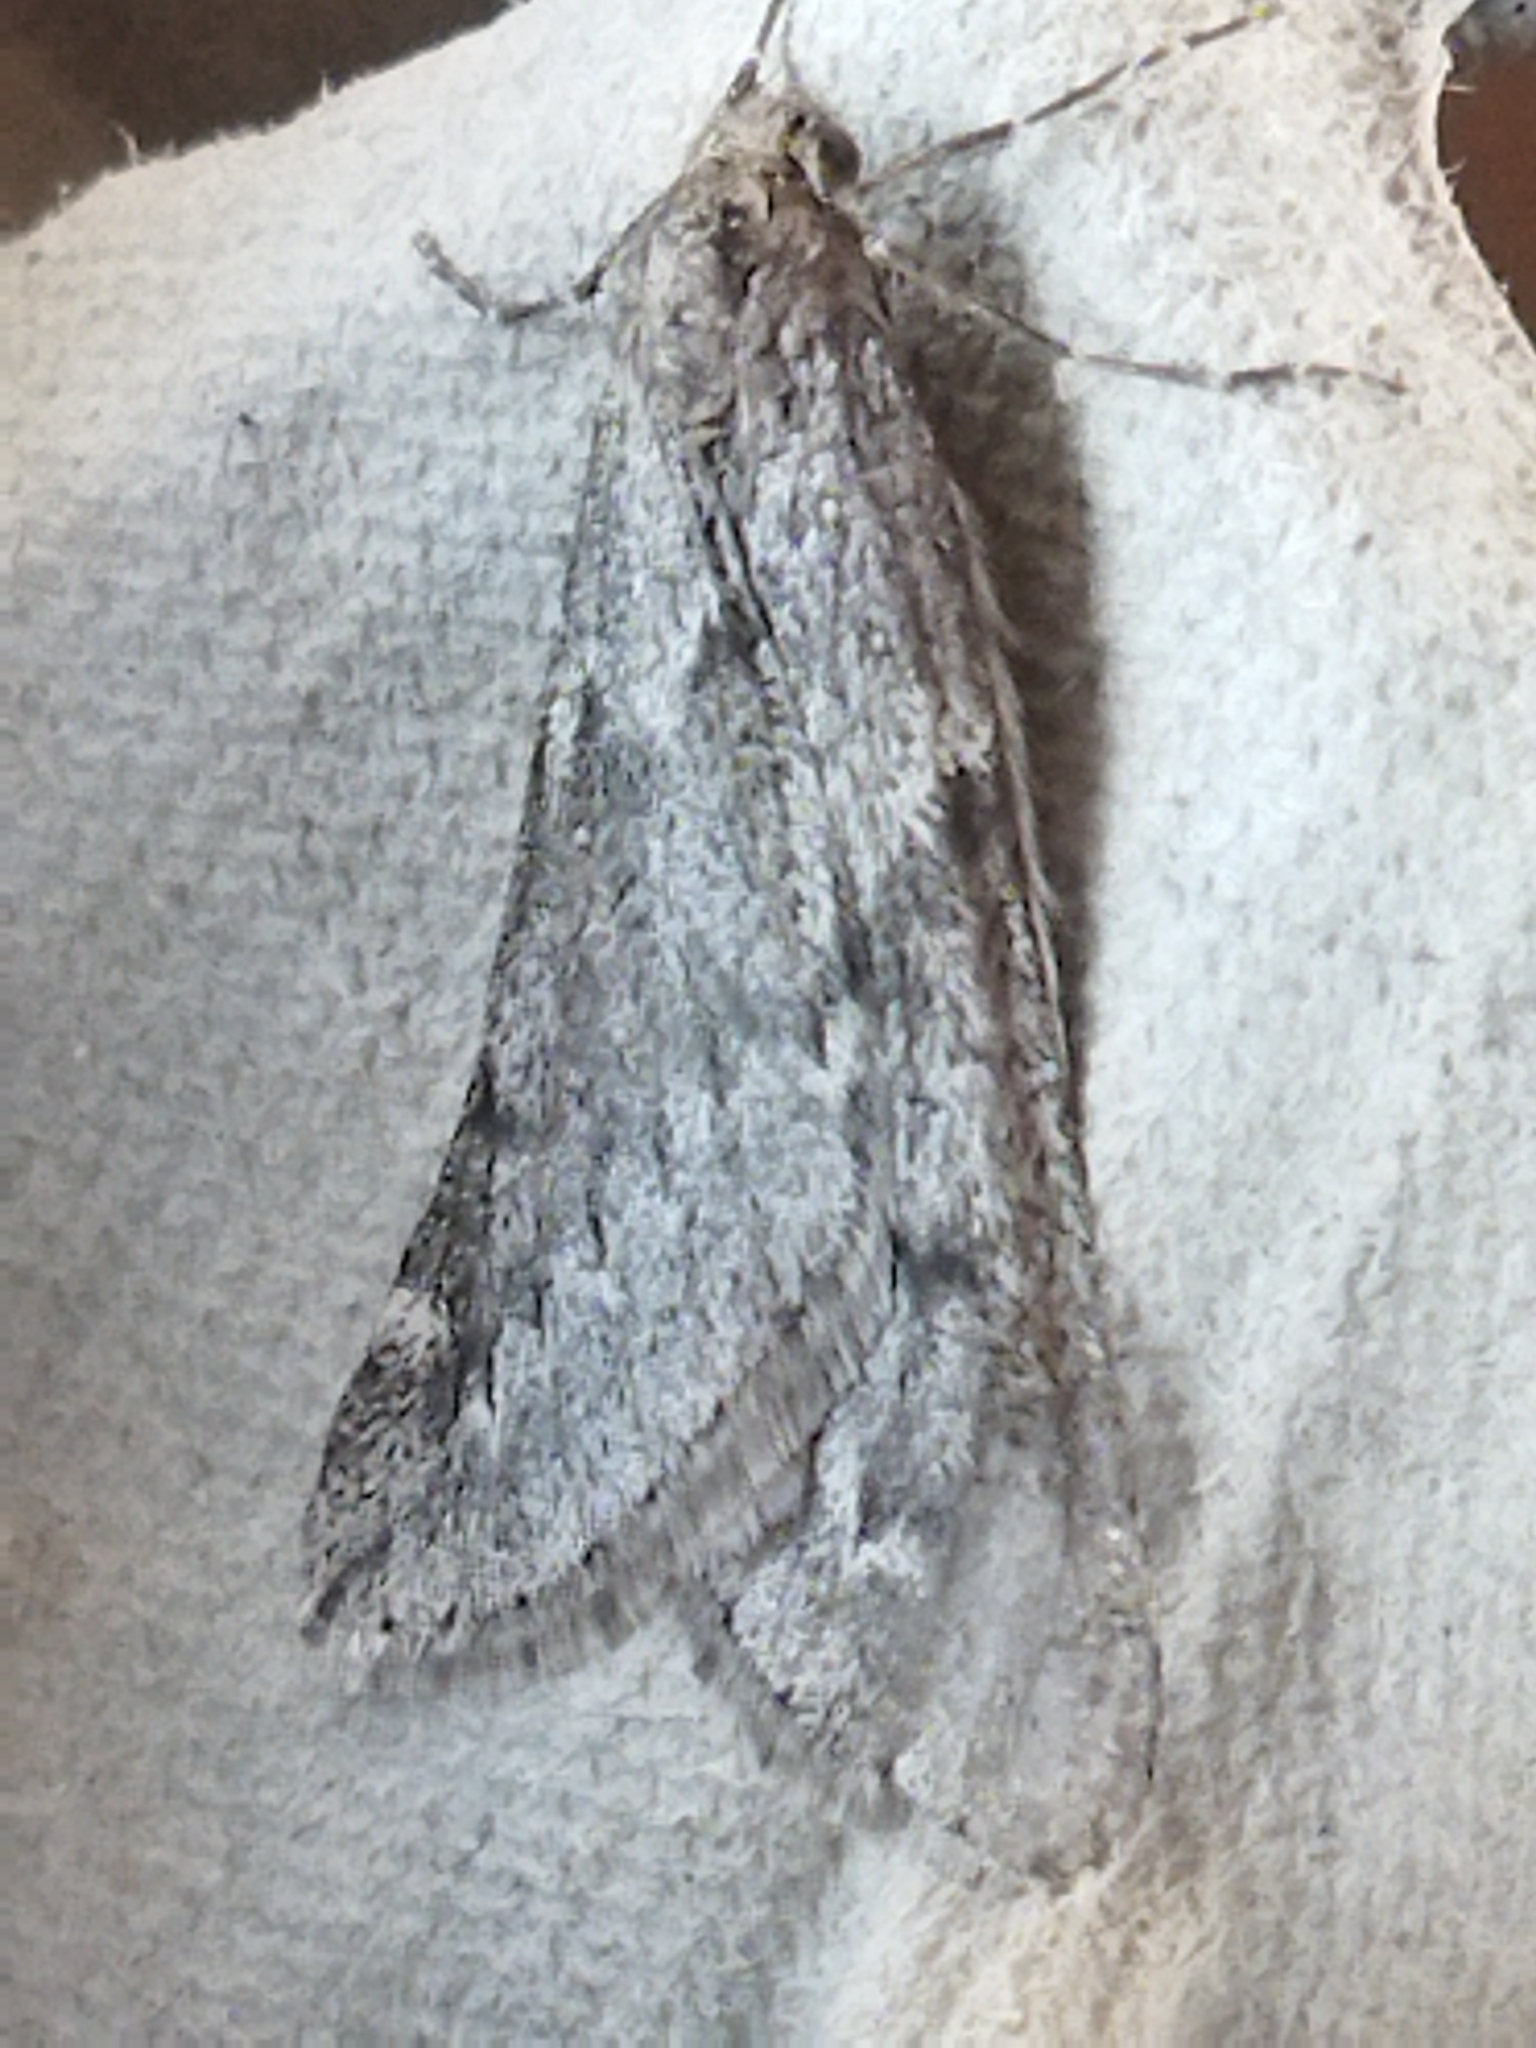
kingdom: Animalia
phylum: Arthropoda
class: Insecta
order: Lepidoptera
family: Geometridae
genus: Alsophila
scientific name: Alsophila aescularia
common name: March moth
